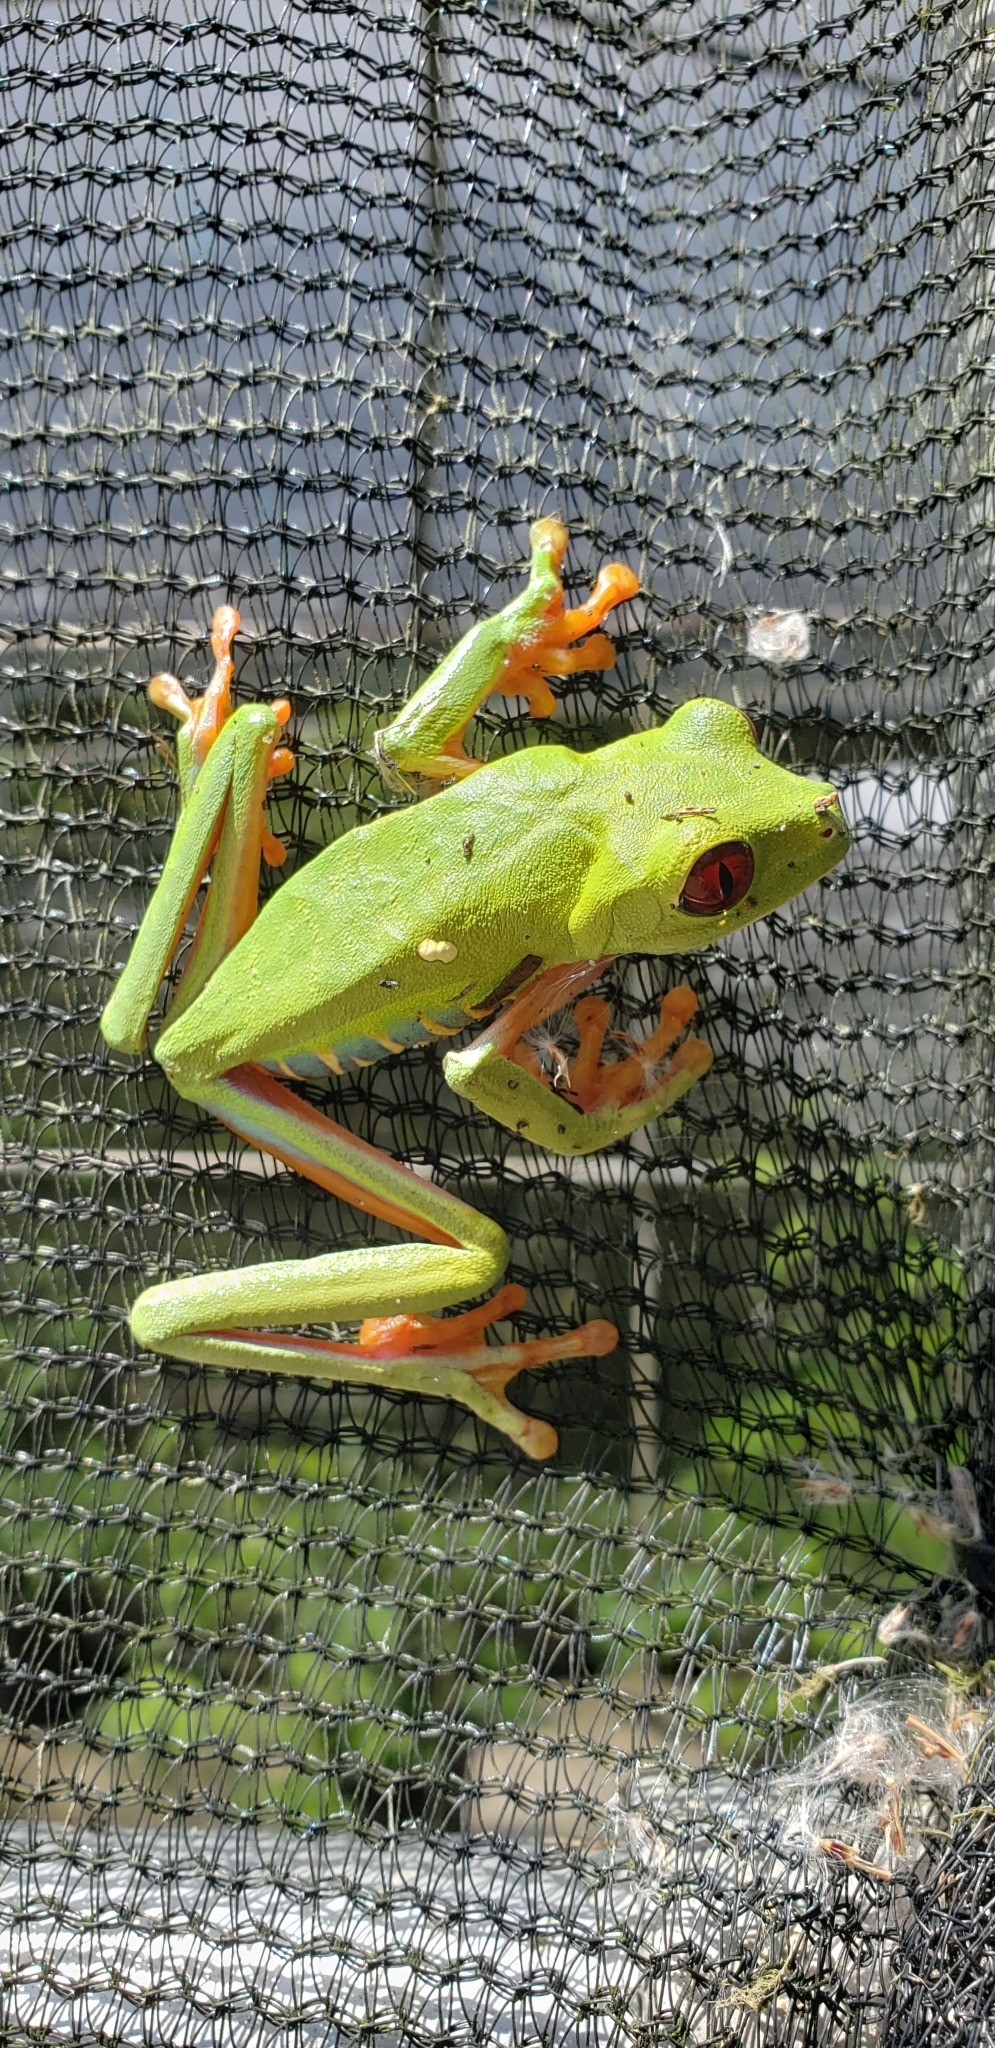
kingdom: Animalia
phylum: Chordata
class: Amphibia
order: Anura
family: Phyllomedusidae
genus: Agalychnis
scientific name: Agalychnis callidryas
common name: Red-eyed treefrog
